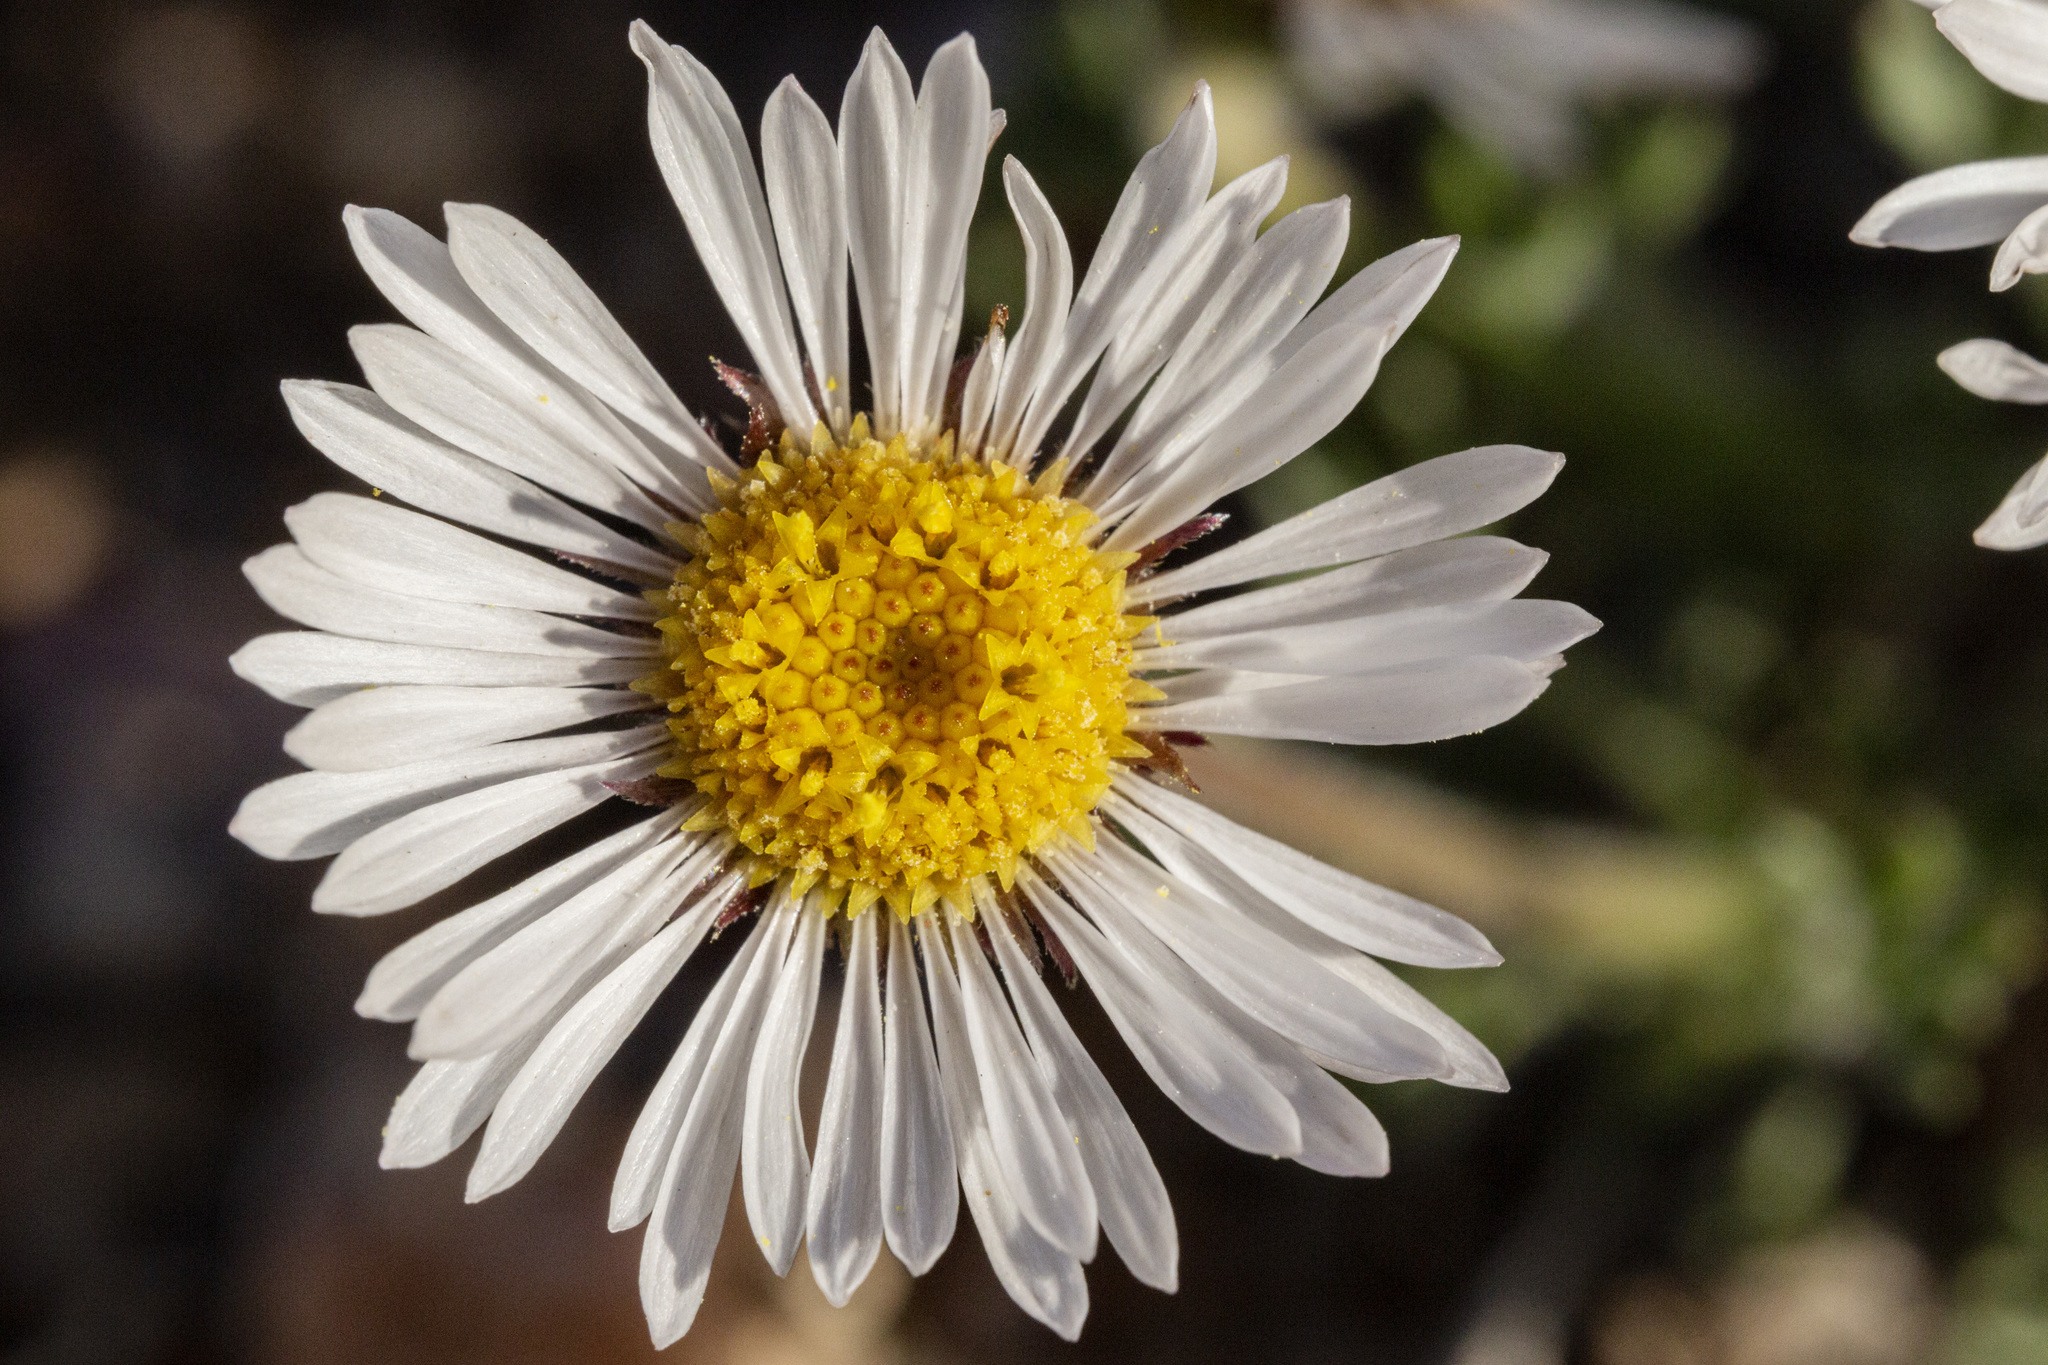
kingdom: Plantae
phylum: Tracheophyta
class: Magnoliopsida
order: Asterales
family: Asteraceae
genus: Erigeron
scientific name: Erigeron compositus
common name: Dwarf mountain fleabane
